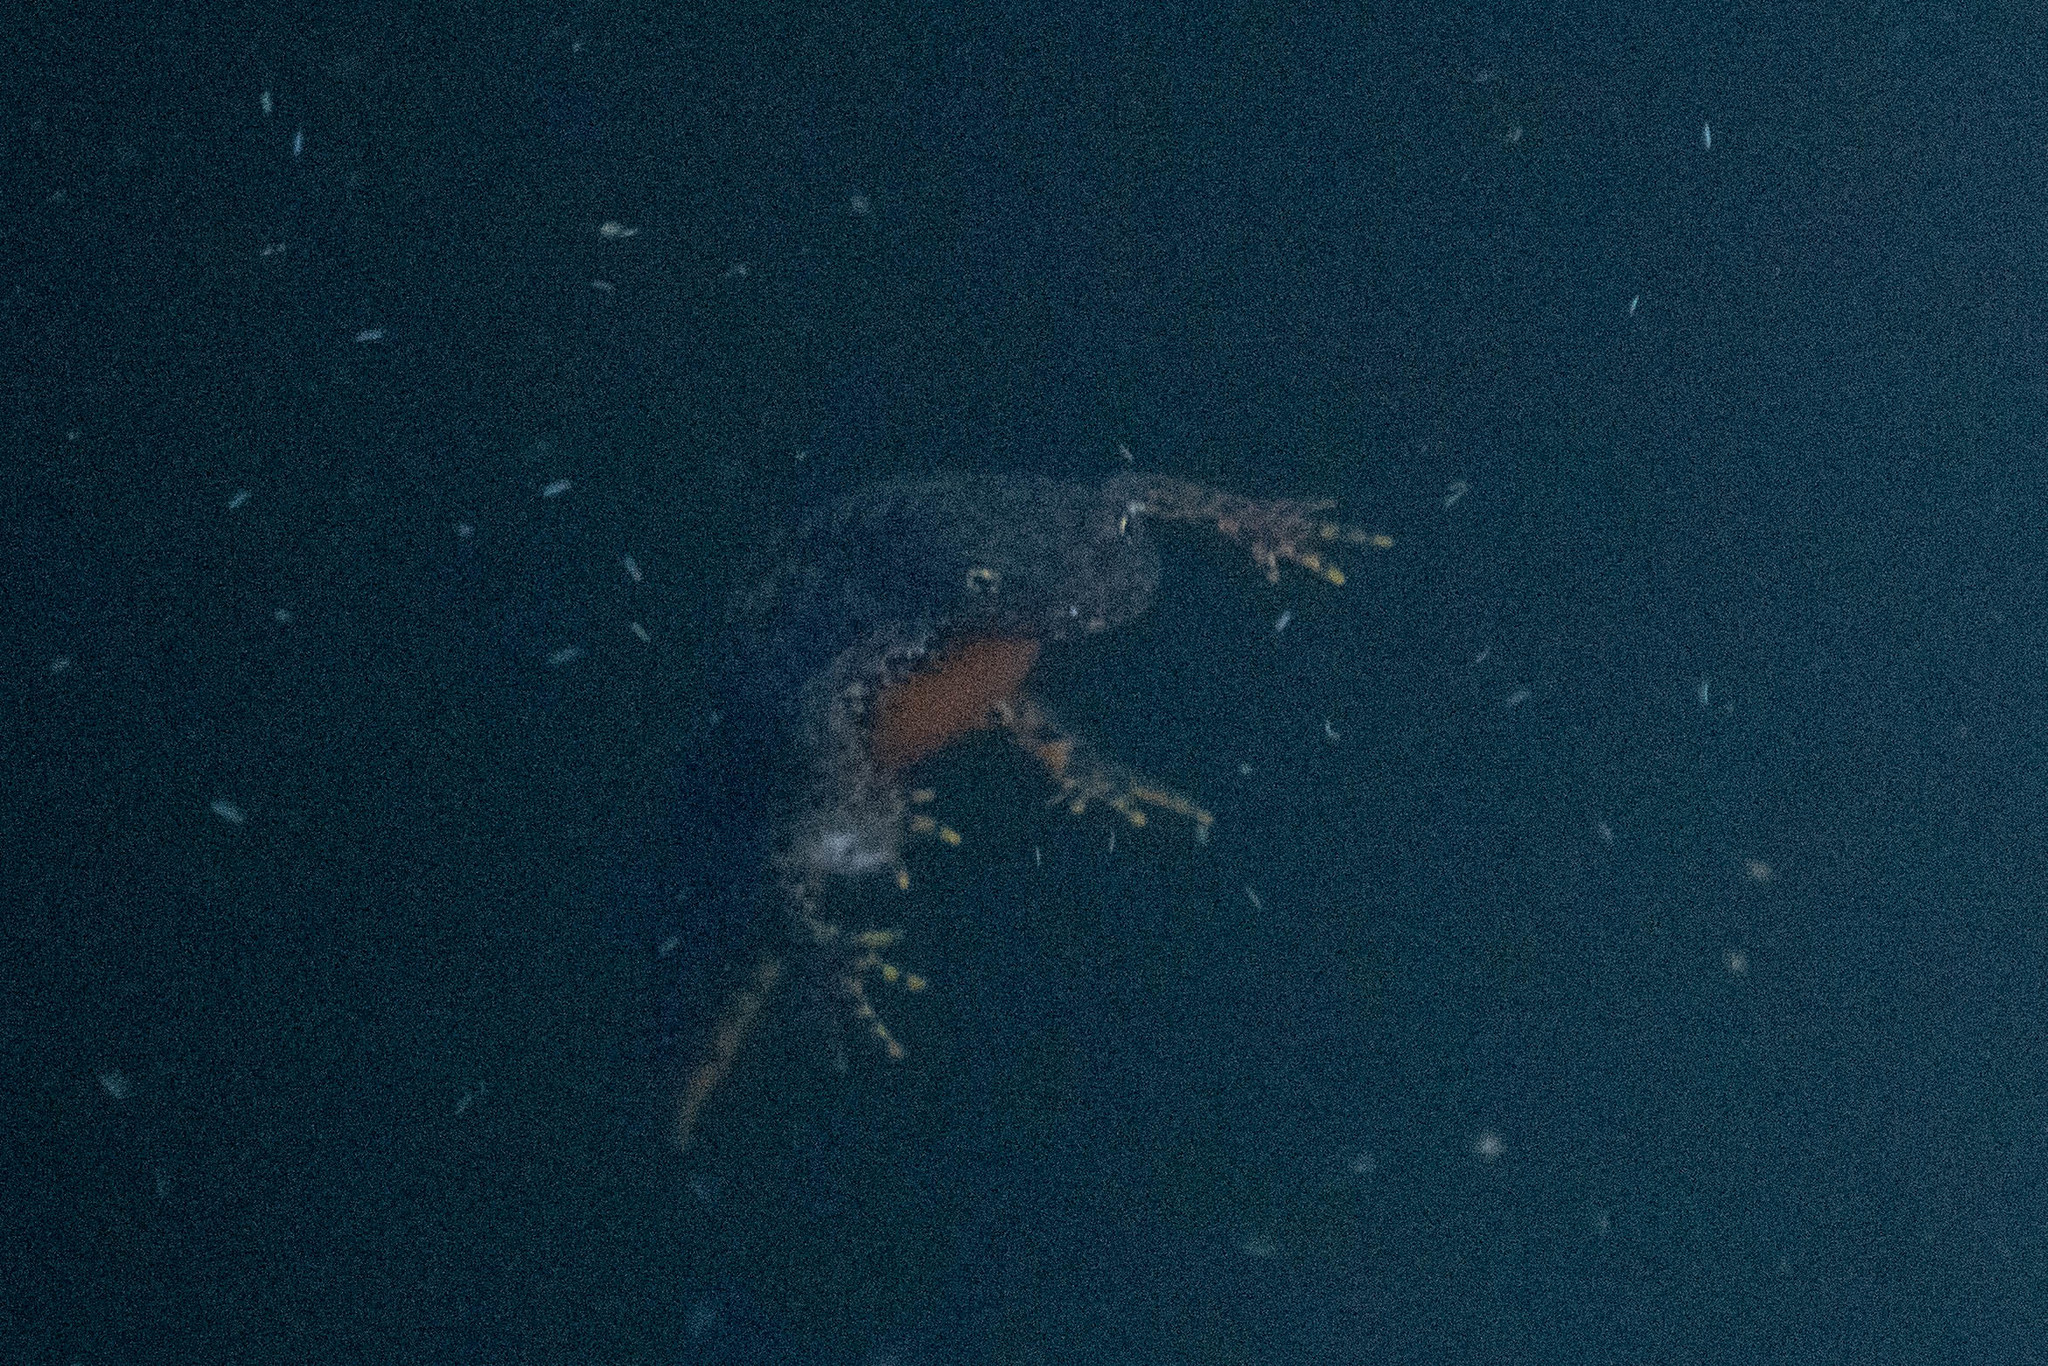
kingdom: Animalia
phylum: Chordata
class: Amphibia
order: Caudata
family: Salamandridae
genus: Ichthyosaura
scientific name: Ichthyosaura alpestris
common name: Alpine newt
